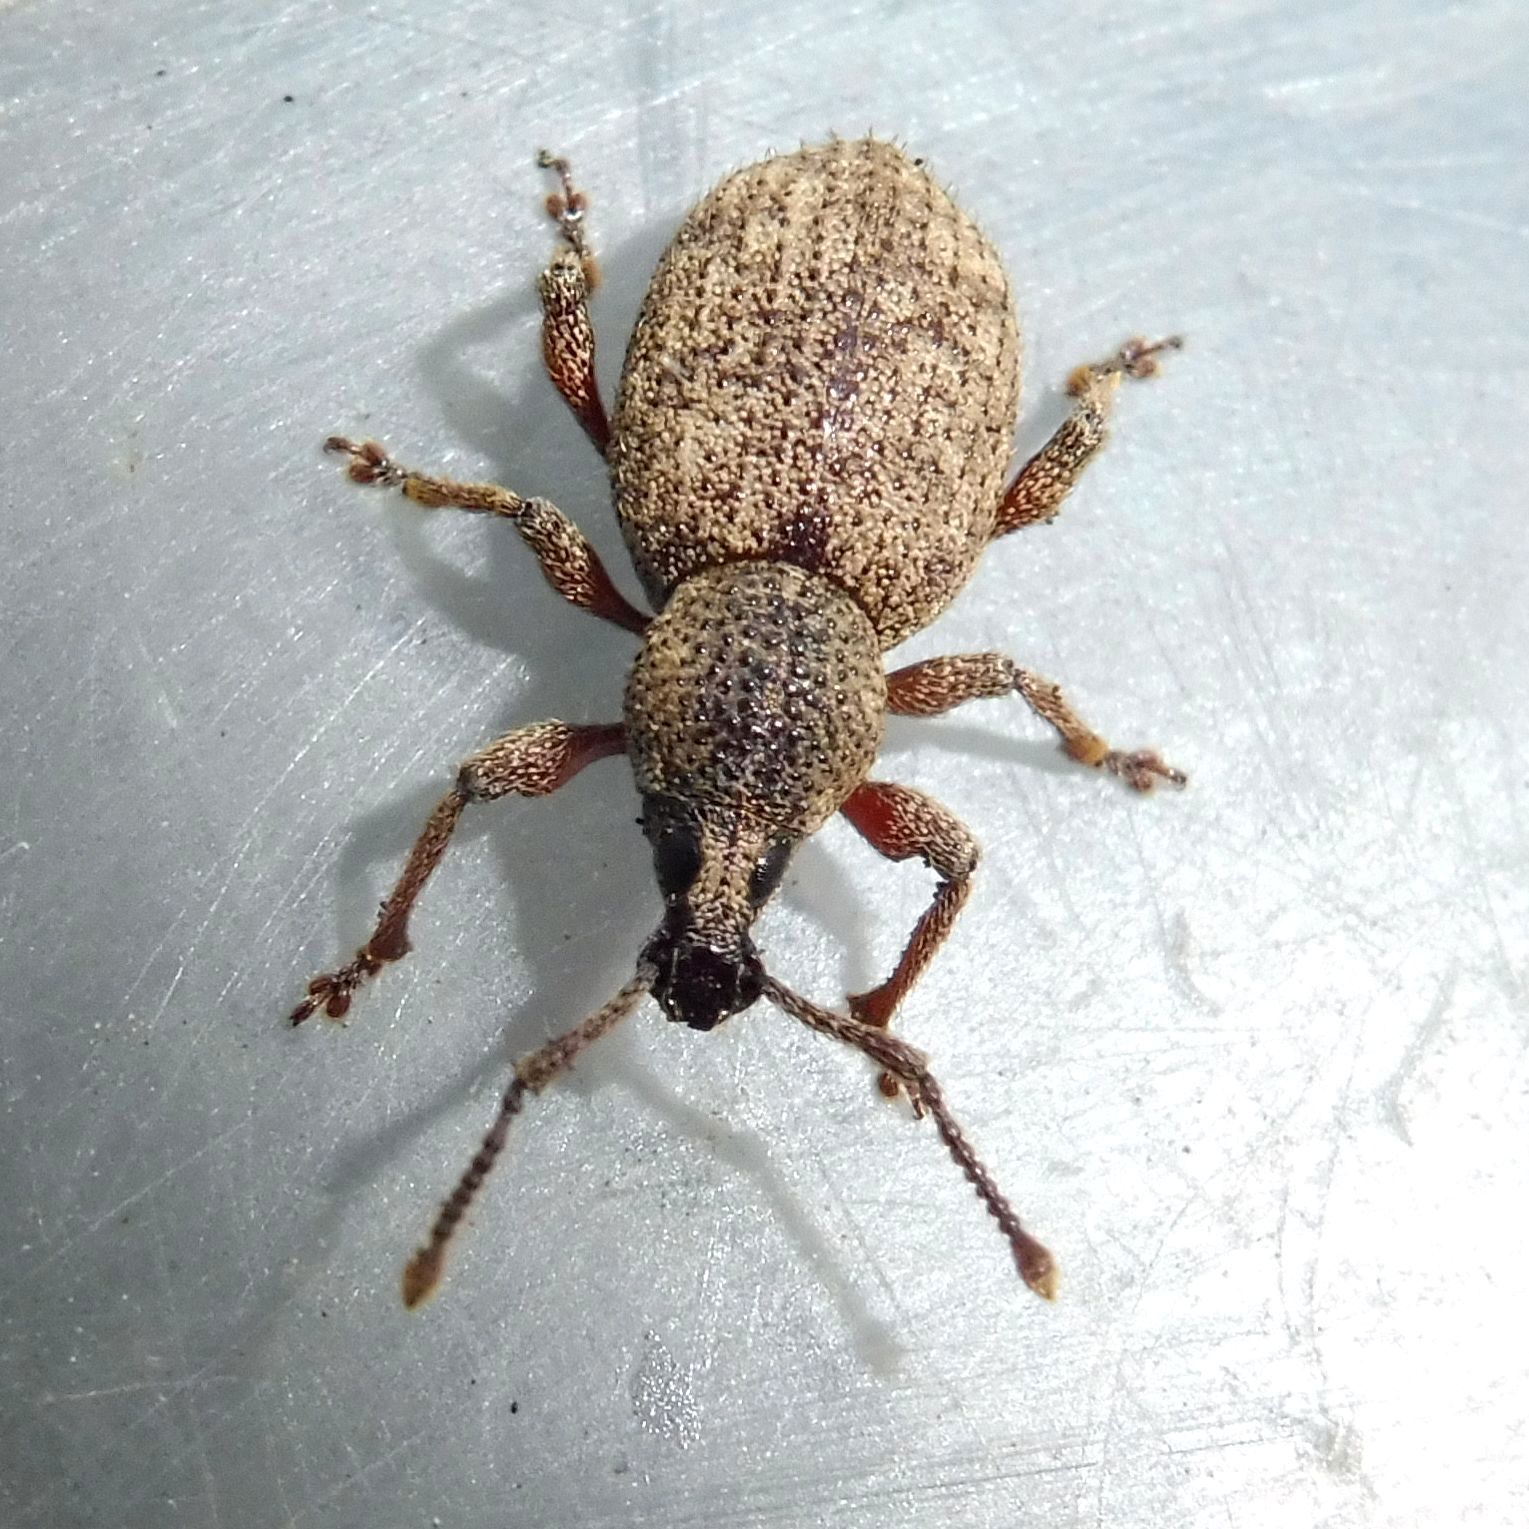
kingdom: Animalia
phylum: Arthropoda
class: Insecta
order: Coleoptera
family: Curculionidae
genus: Otiorhynchus
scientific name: Otiorhynchus singularis
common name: Clay-coloured weevil
